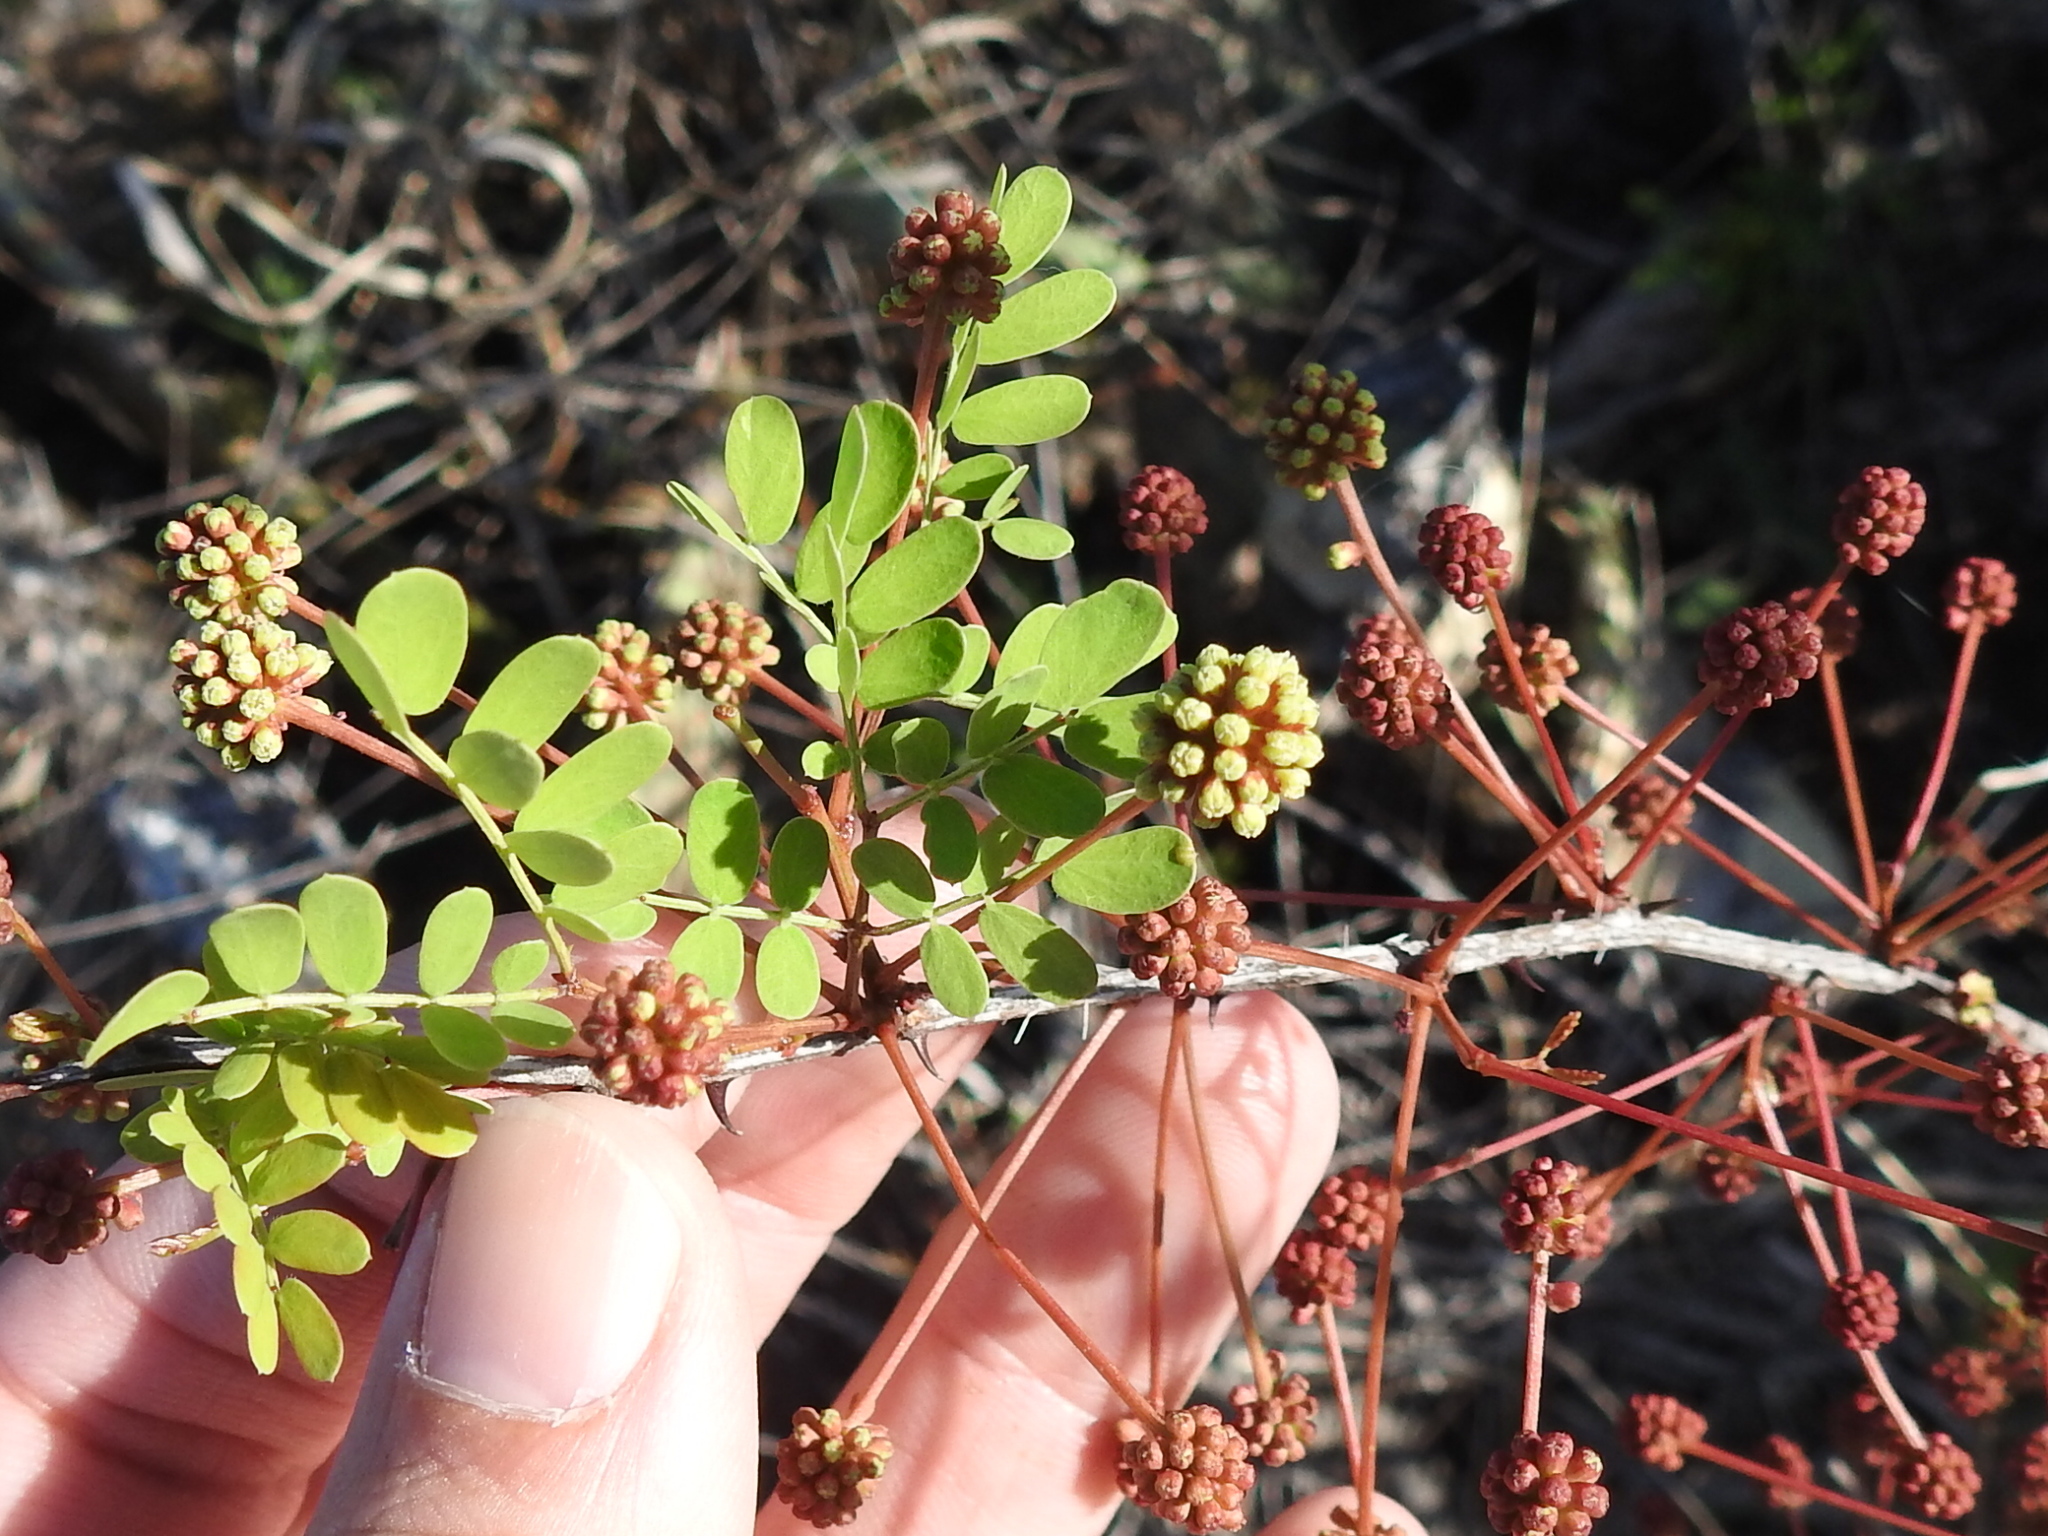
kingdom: Plantae
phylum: Tracheophyta
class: Magnoliopsida
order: Fabales
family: Fabaceae
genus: Senegalia
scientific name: Senegalia roemeriana
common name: Roemer's acacia
